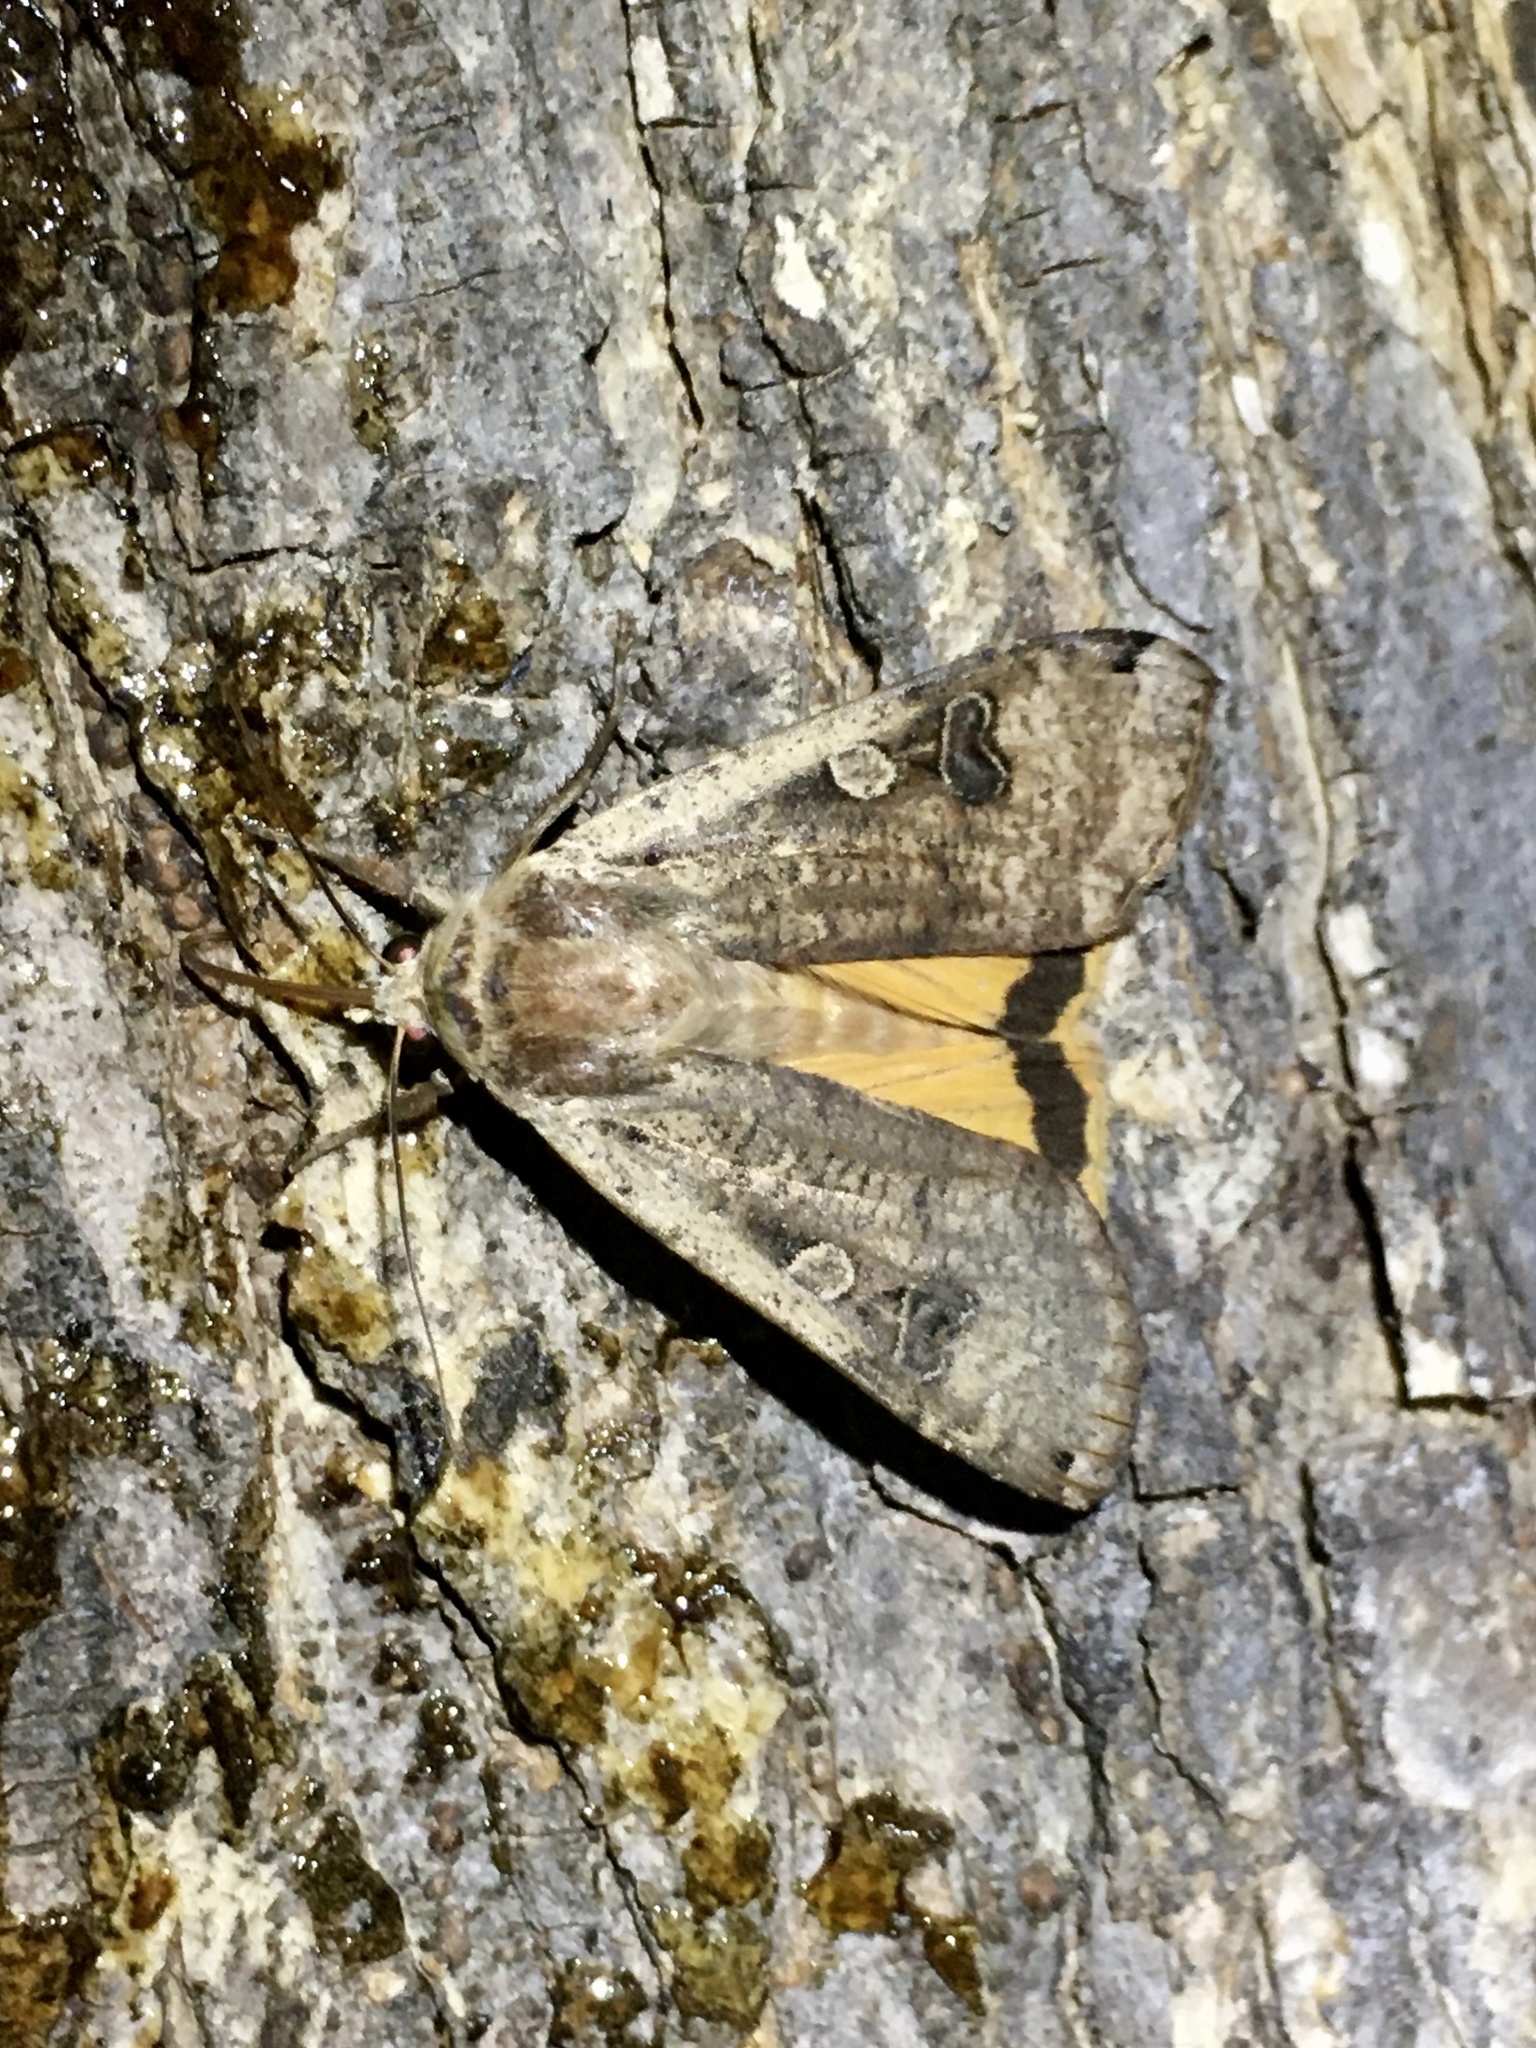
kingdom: Animalia
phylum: Arthropoda
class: Insecta
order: Lepidoptera
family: Noctuidae
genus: Noctua
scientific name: Noctua pronuba
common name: Large yellow underwing
